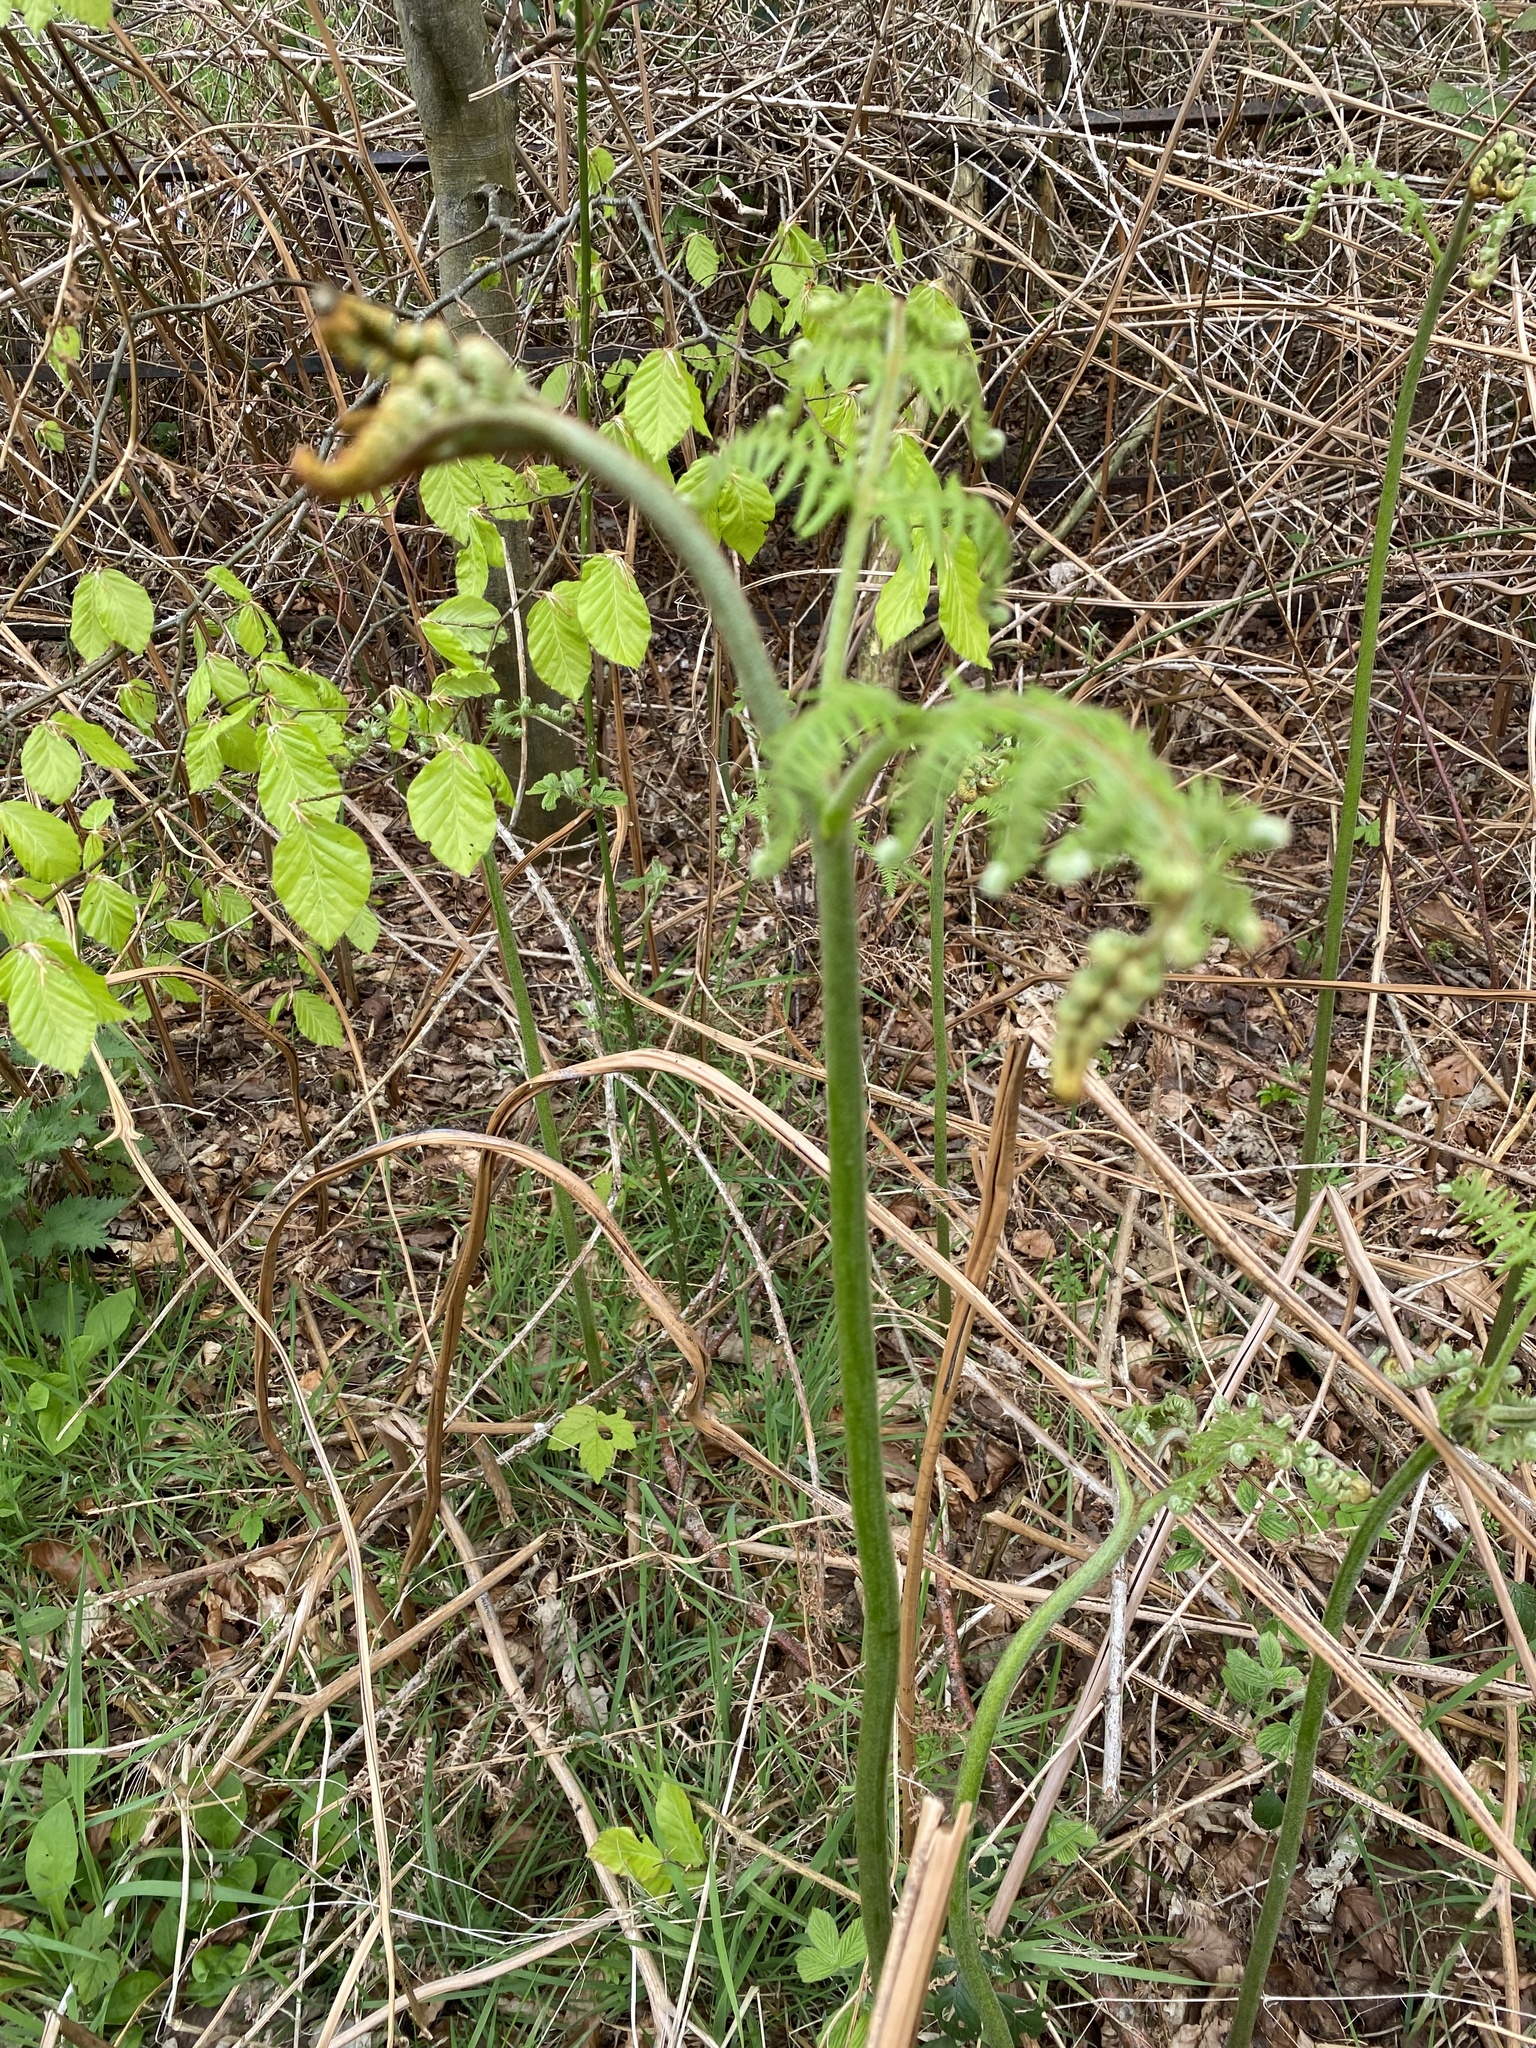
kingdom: Plantae
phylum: Tracheophyta
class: Polypodiopsida
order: Polypodiales
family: Dennstaedtiaceae
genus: Pteridium
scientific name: Pteridium aquilinum
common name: Bracken
